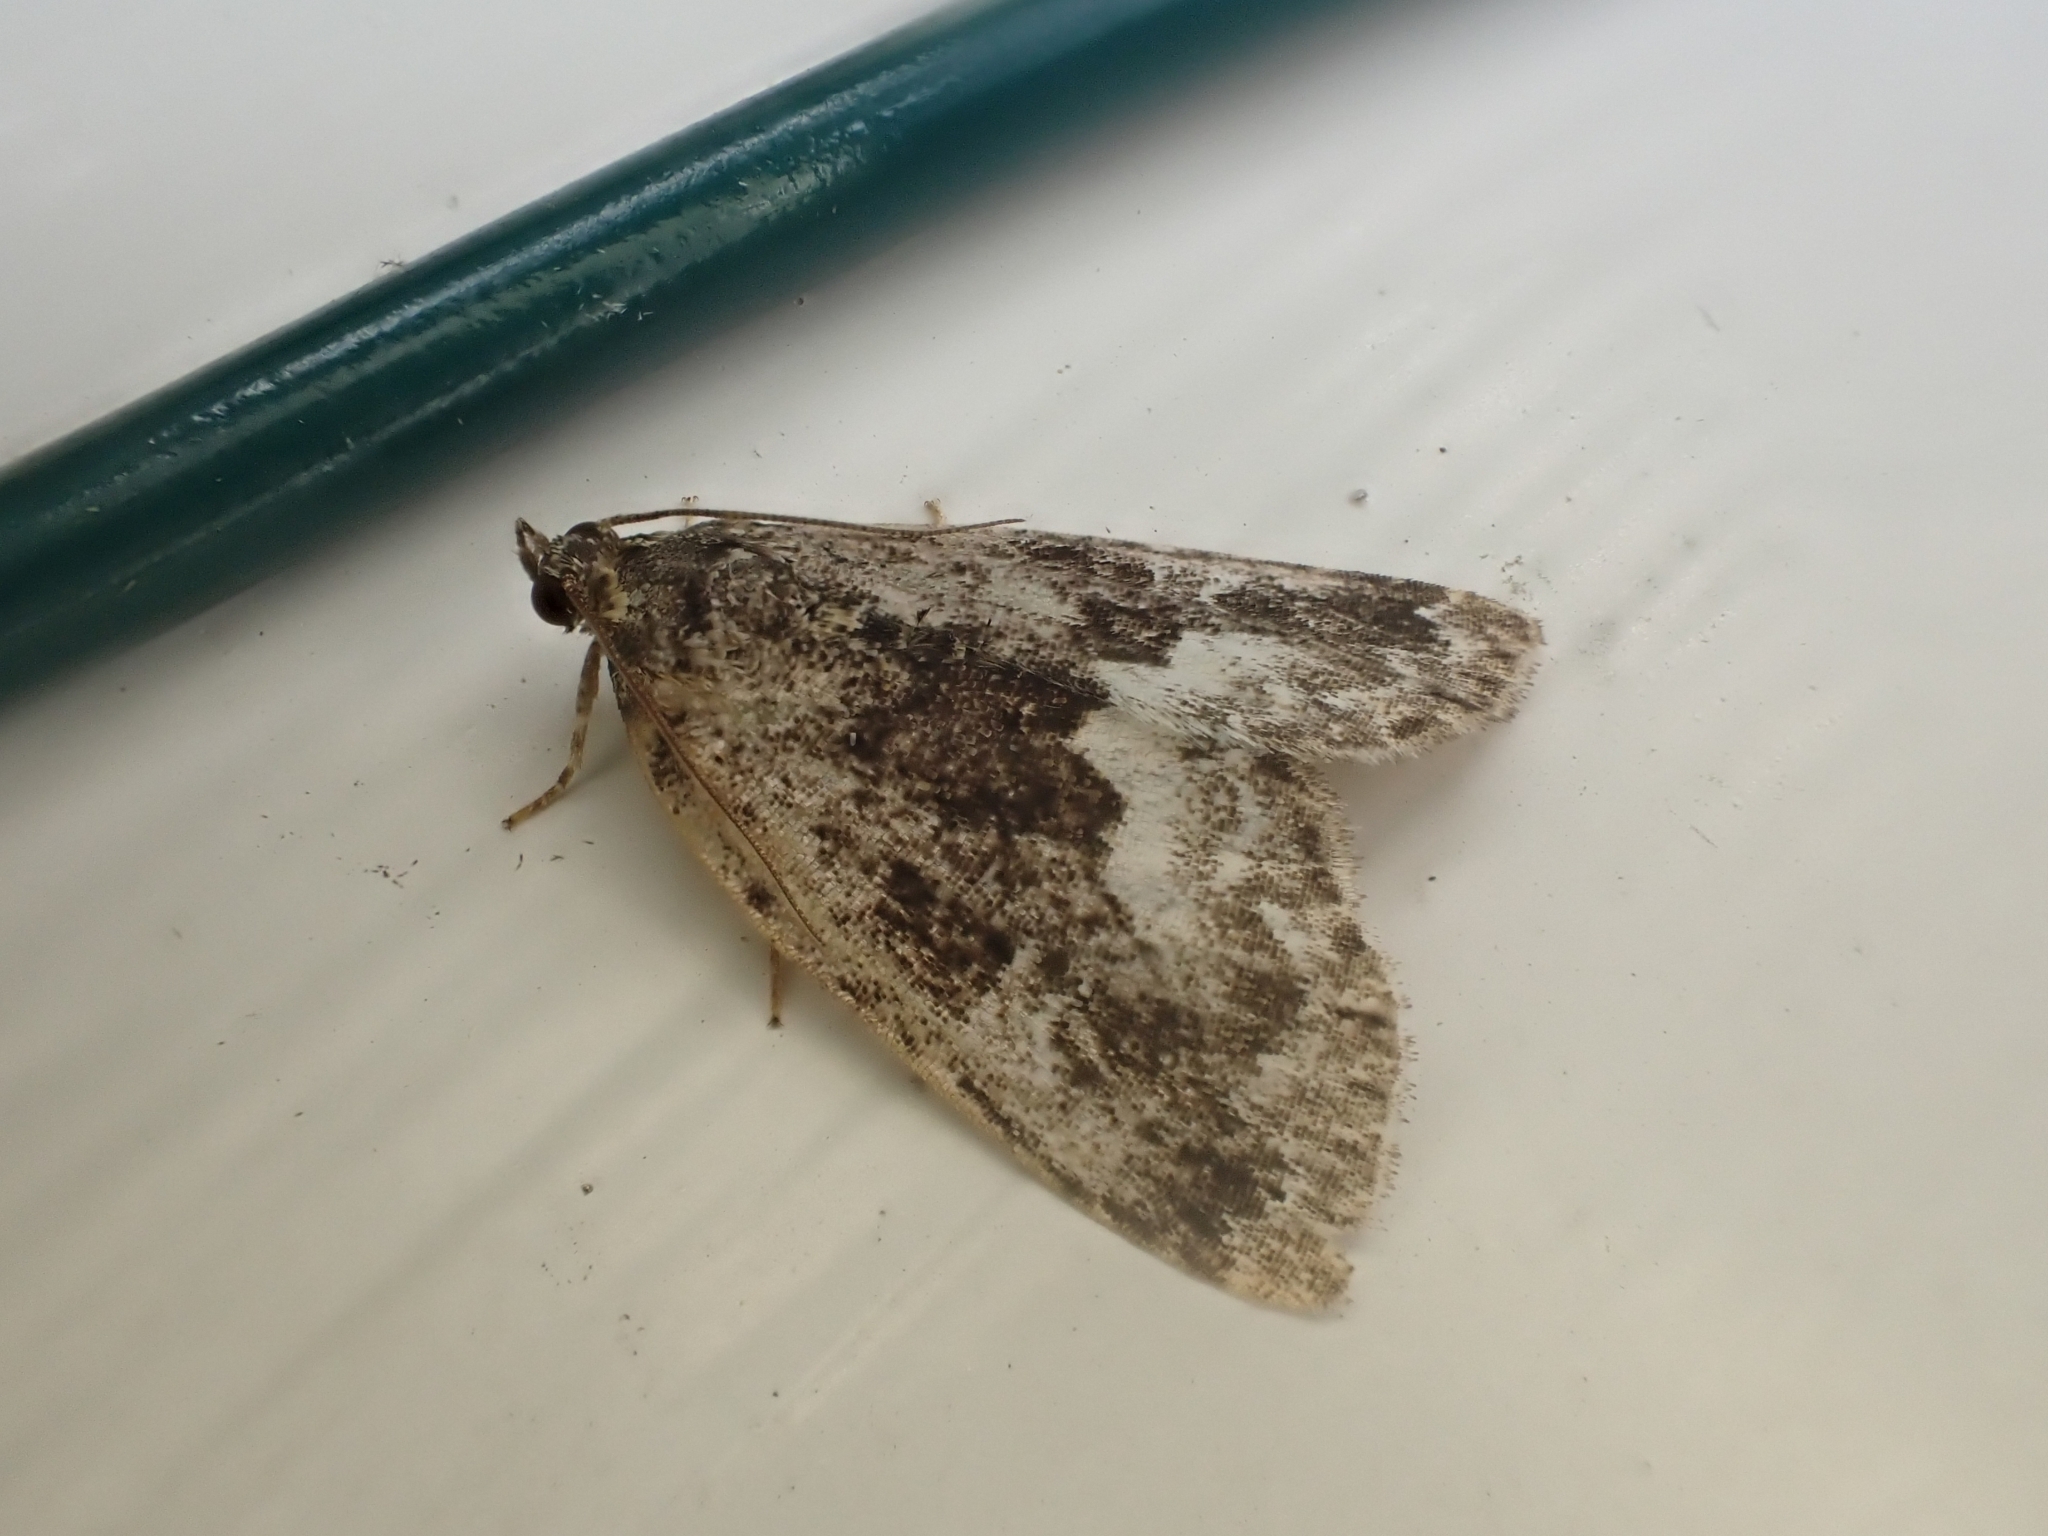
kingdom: Animalia
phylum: Arthropoda
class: Insecta
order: Lepidoptera
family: Noctuidae
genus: Deltote
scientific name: Deltote pygarga
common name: Marbled white spot
